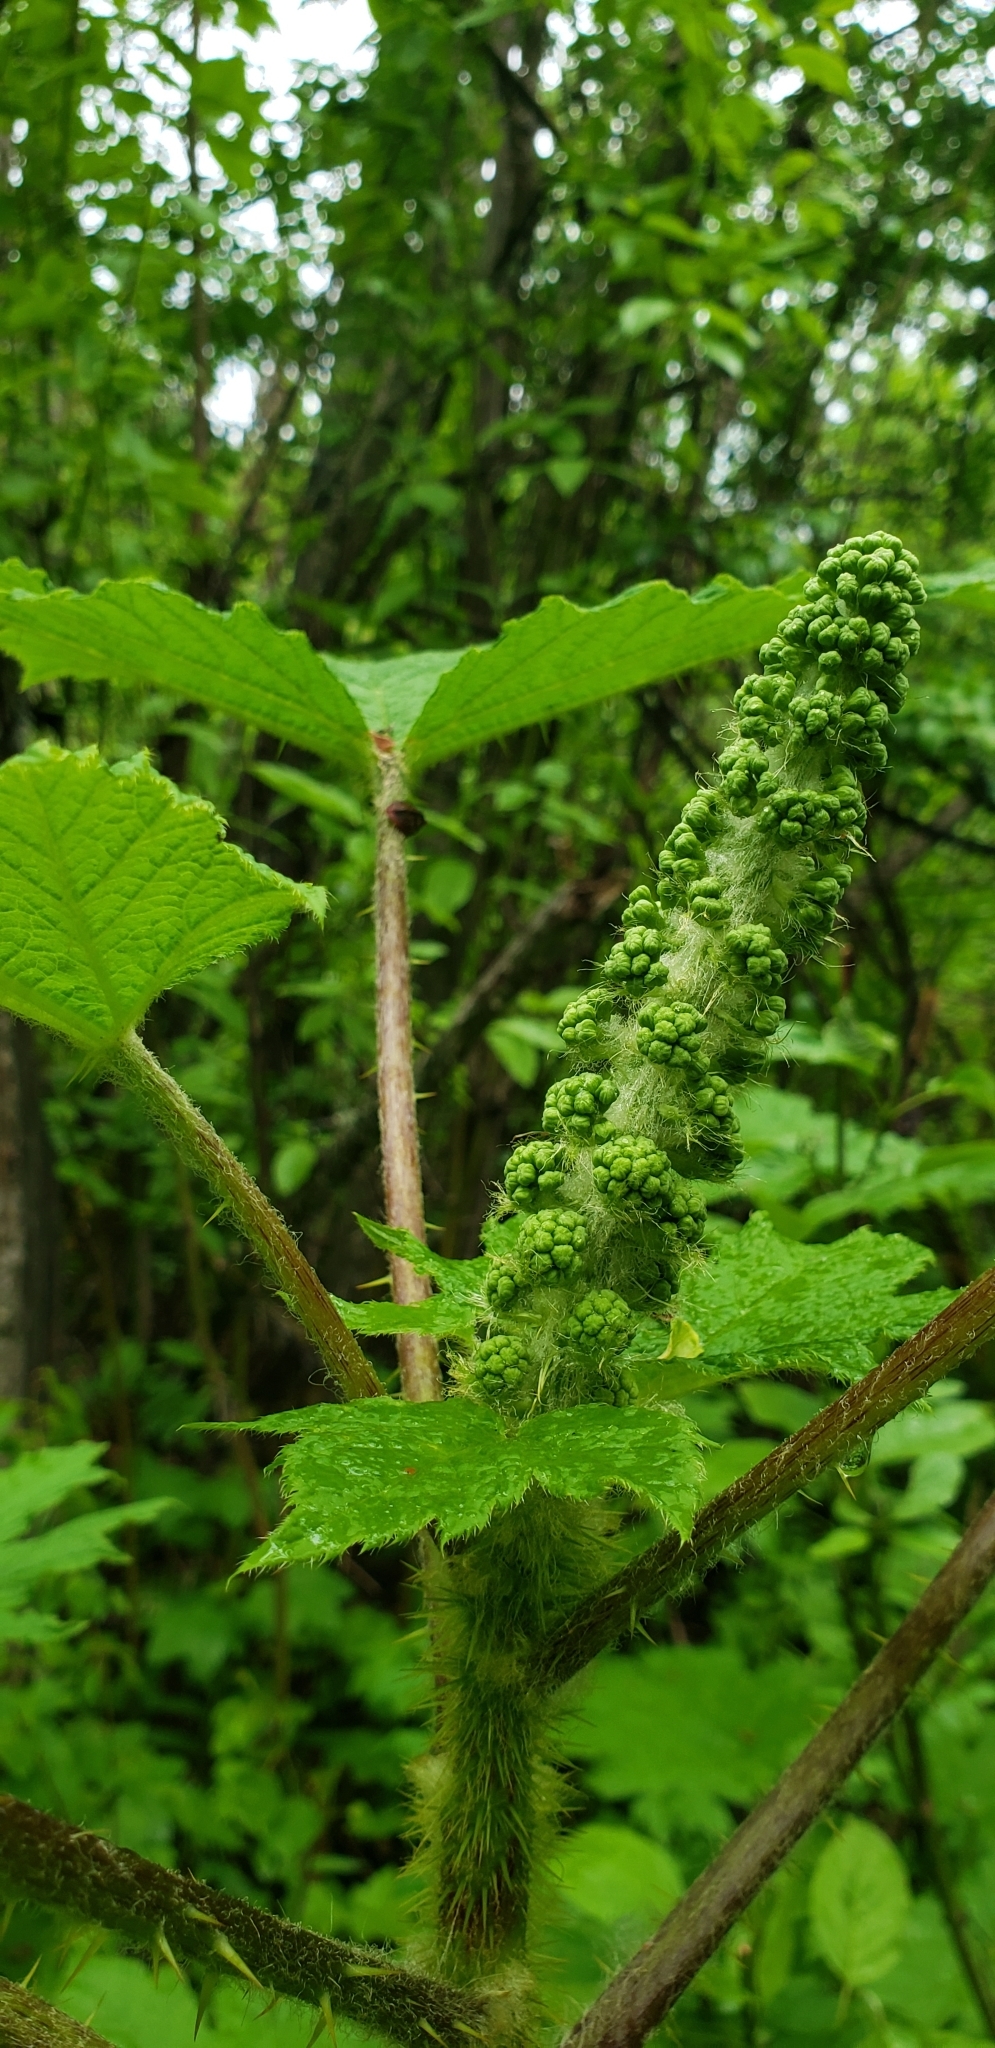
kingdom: Plantae
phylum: Tracheophyta
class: Magnoliopsida
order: Apiales
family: Araliaceae
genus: Oplopanax
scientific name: Oplopanax horridus
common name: Devil's walking-stick
